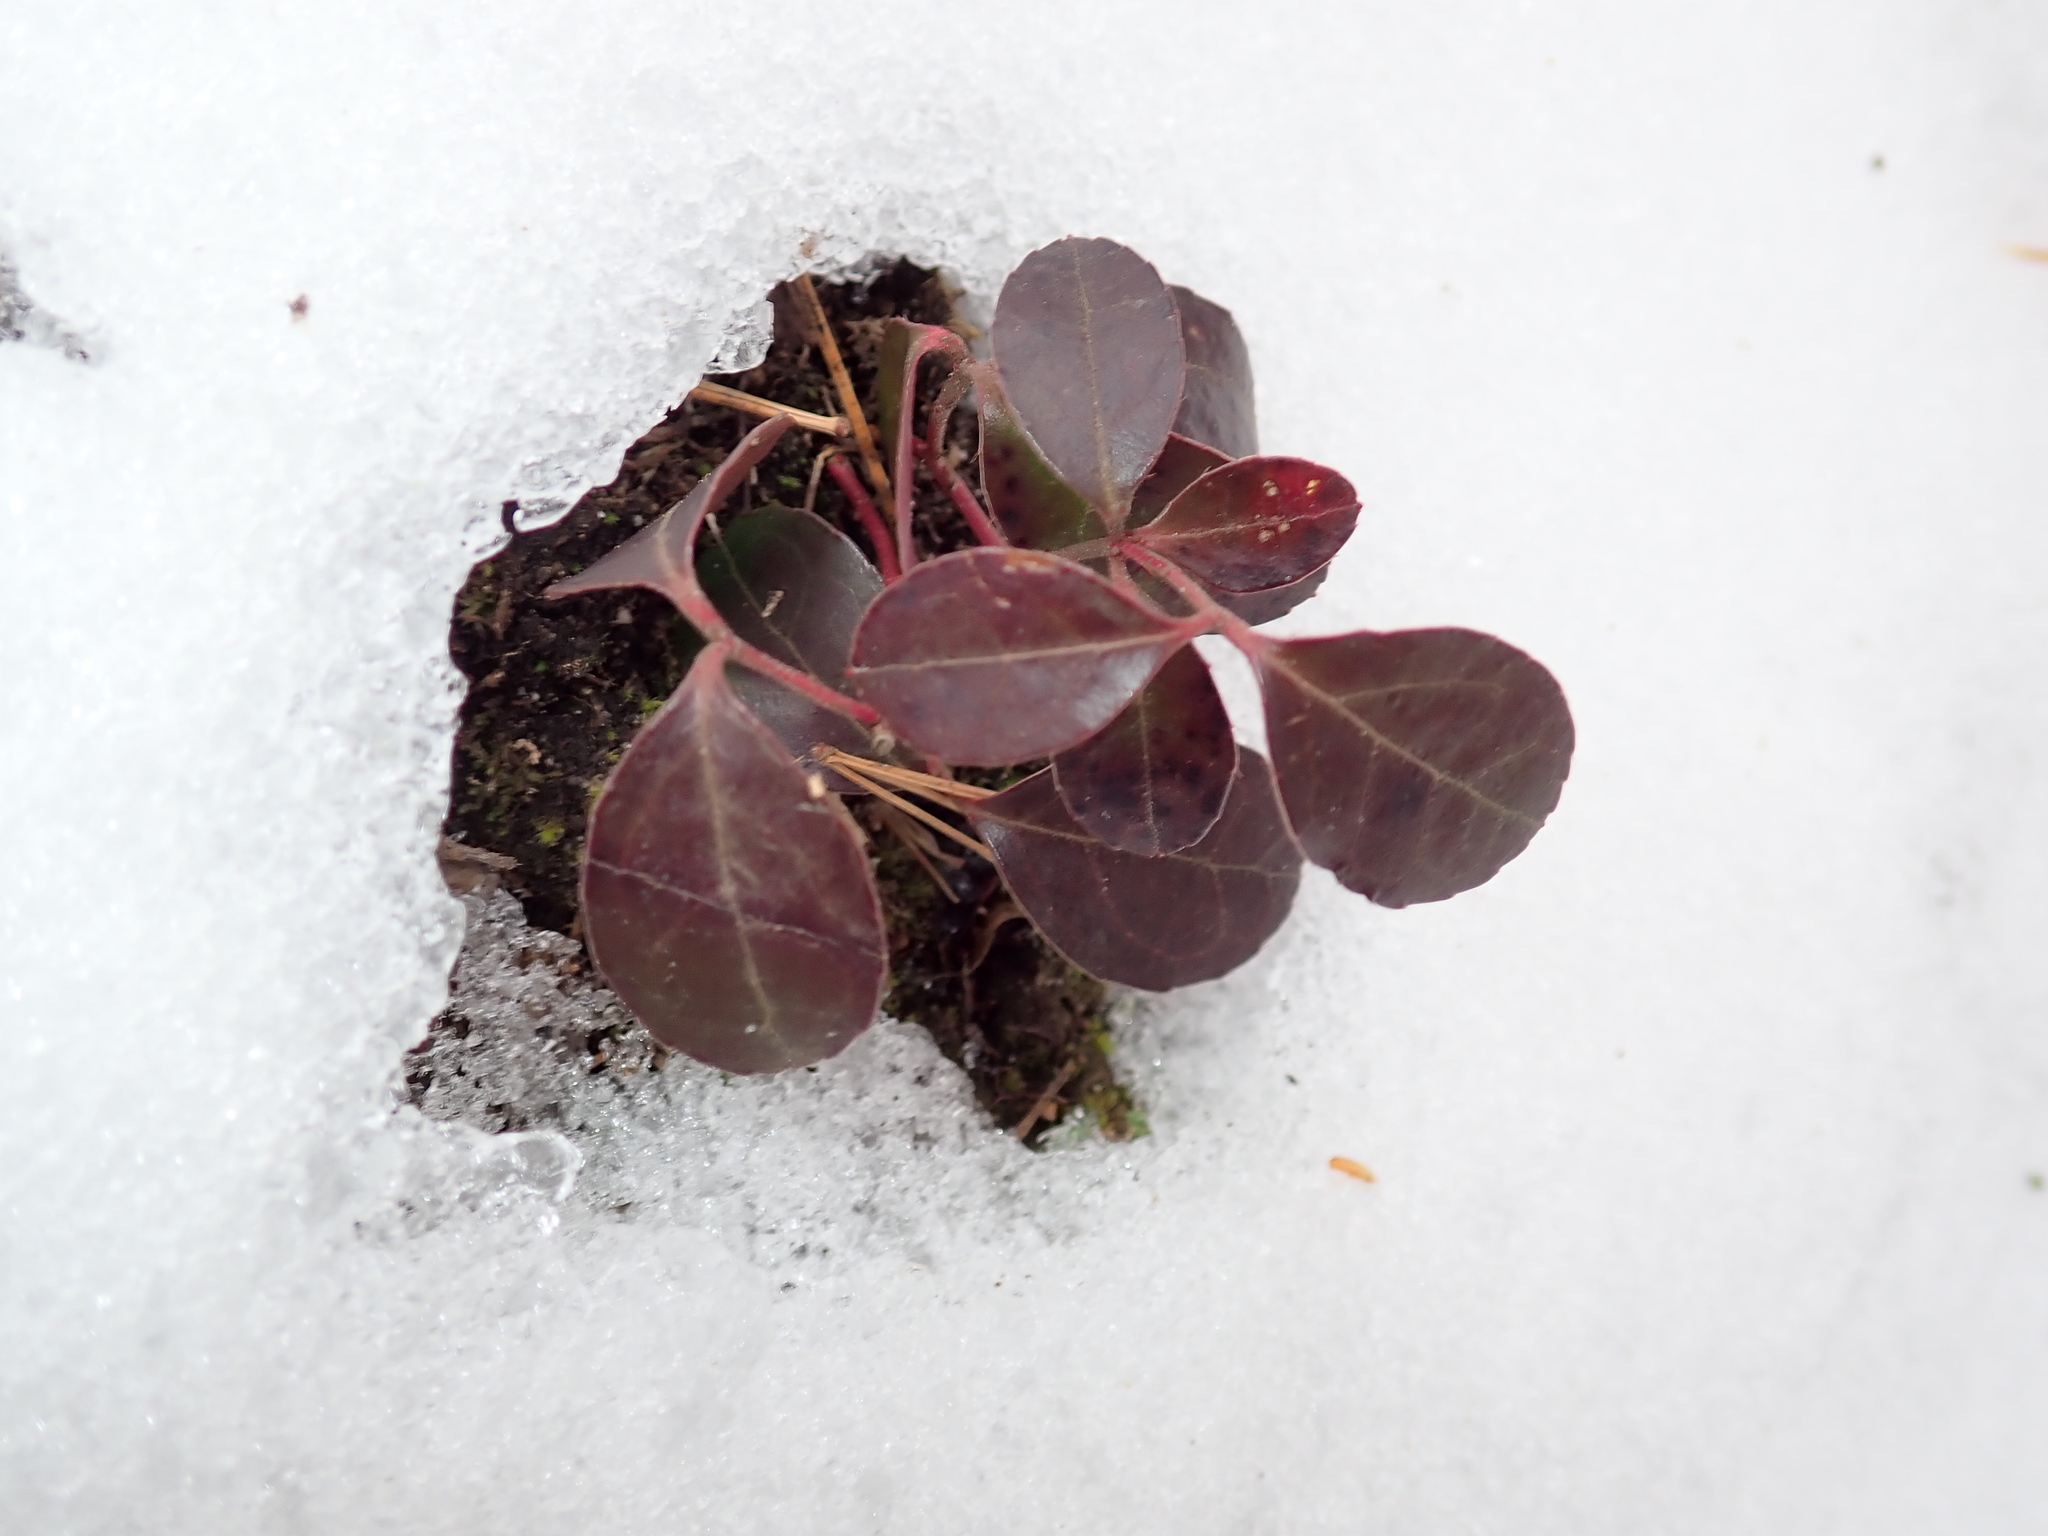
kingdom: Plantae
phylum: Tracheophyta
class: Magnoliopsida
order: Ericales
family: Ericaceae
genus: Gaultheria
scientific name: Gaultheria procumbens
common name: Checkerberry
